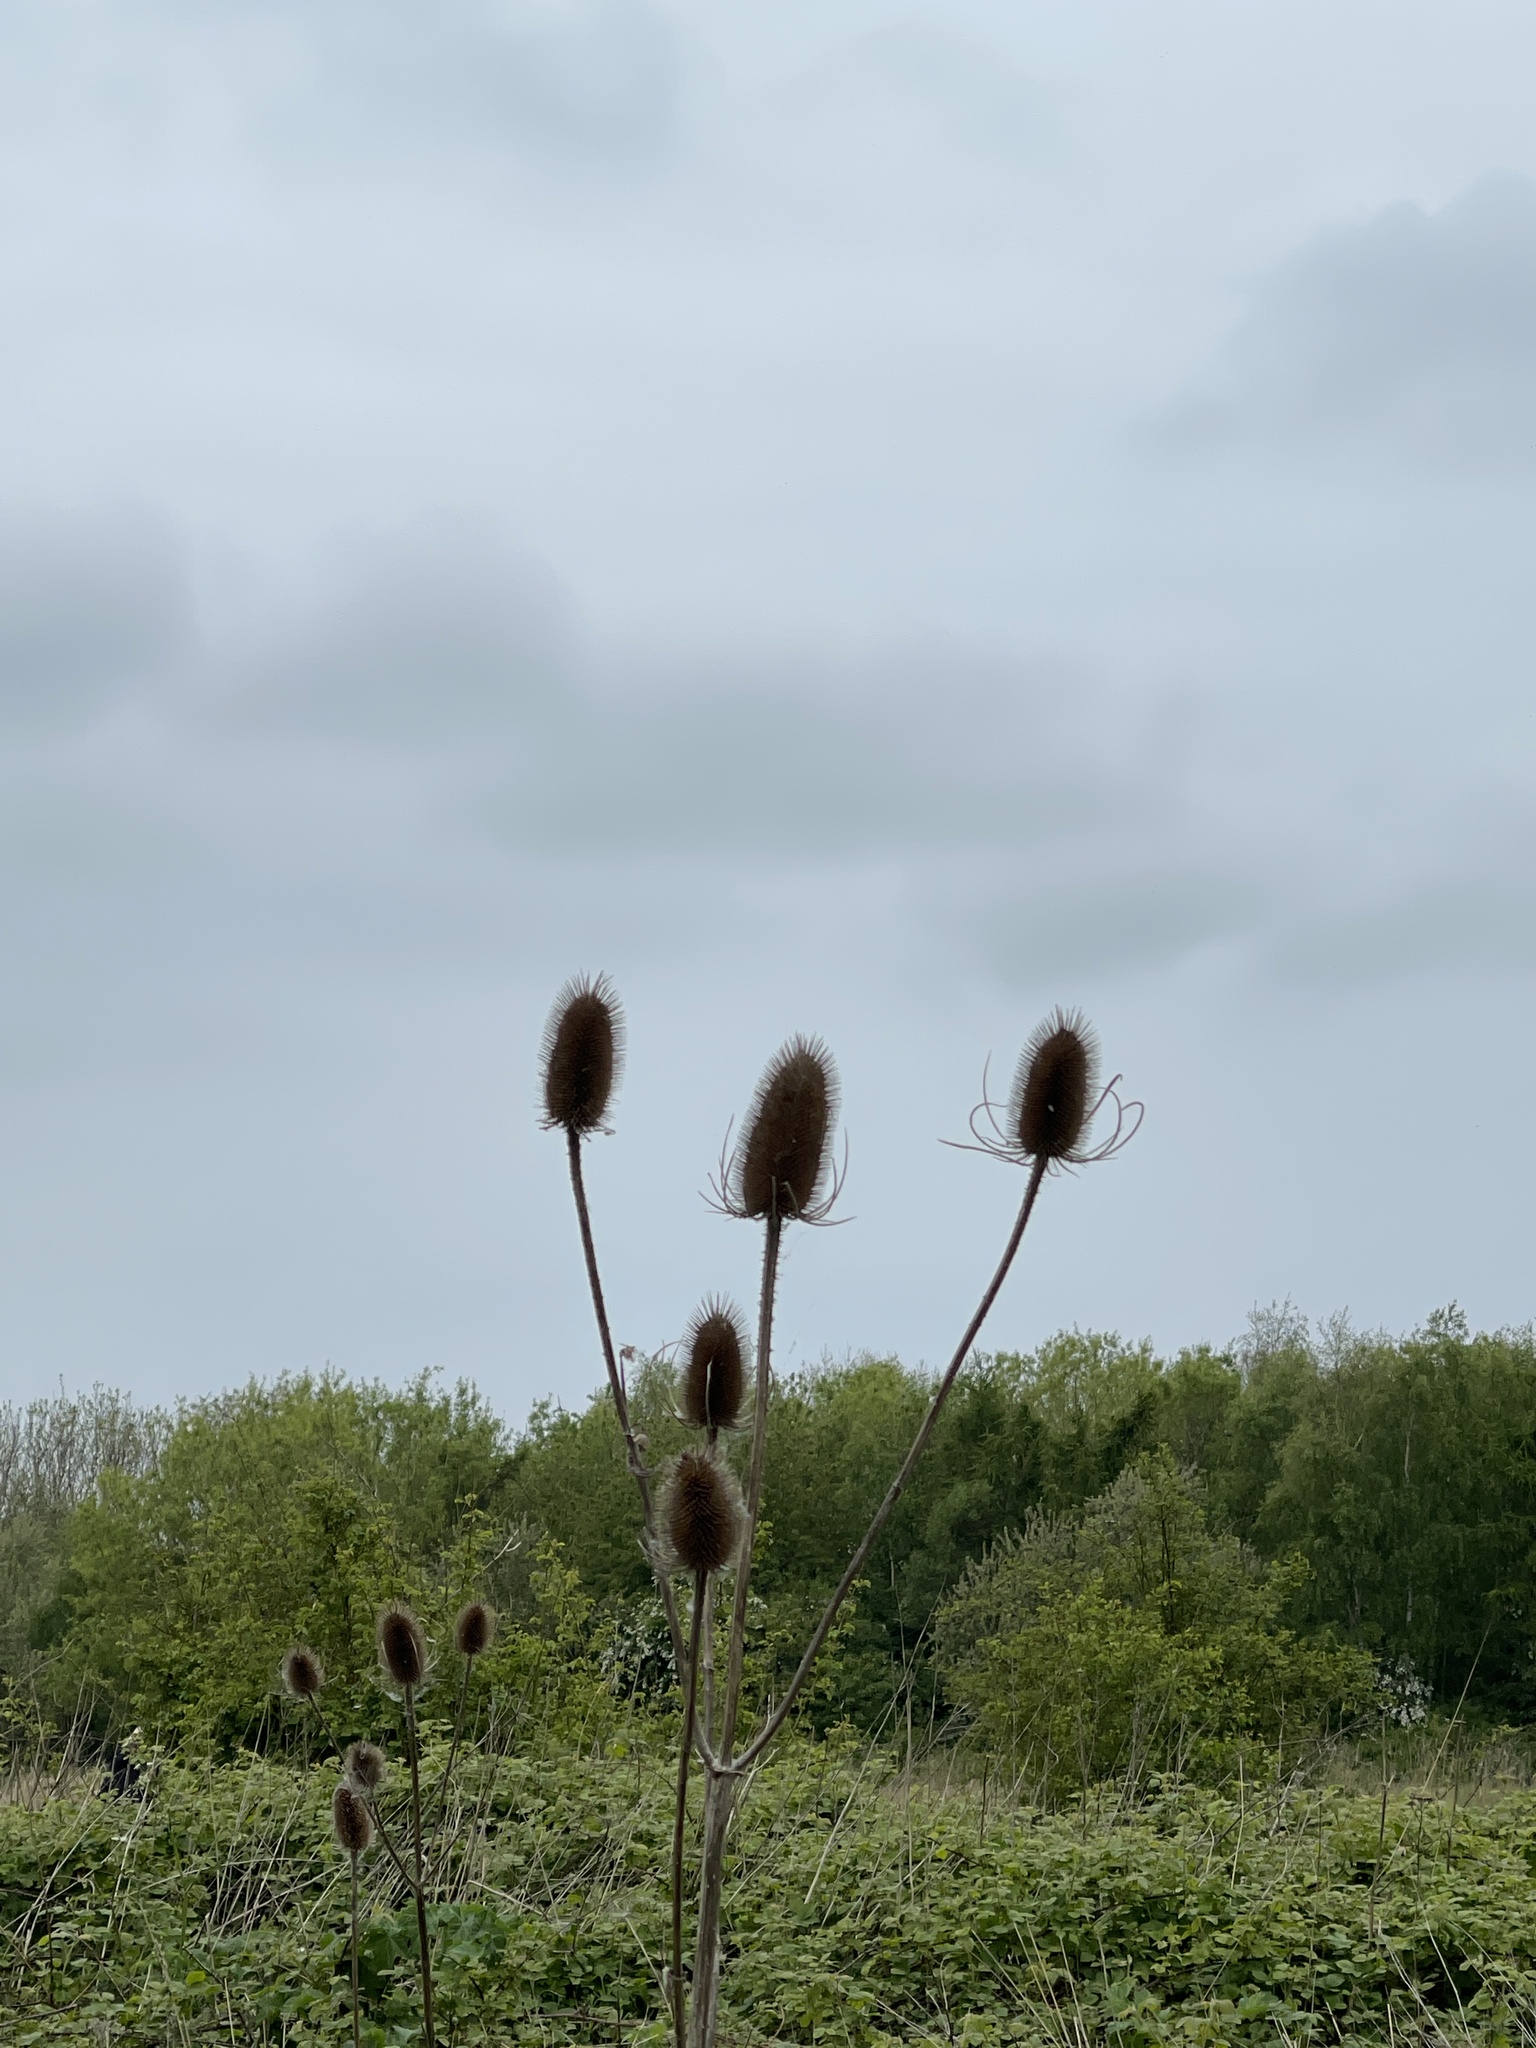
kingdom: Plantae
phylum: Tracheophyta
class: Magnoliopsida
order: Dipsacales
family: Caprifoliaceae
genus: Dipsacus
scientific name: Dipsacus fullonum
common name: Teasel
